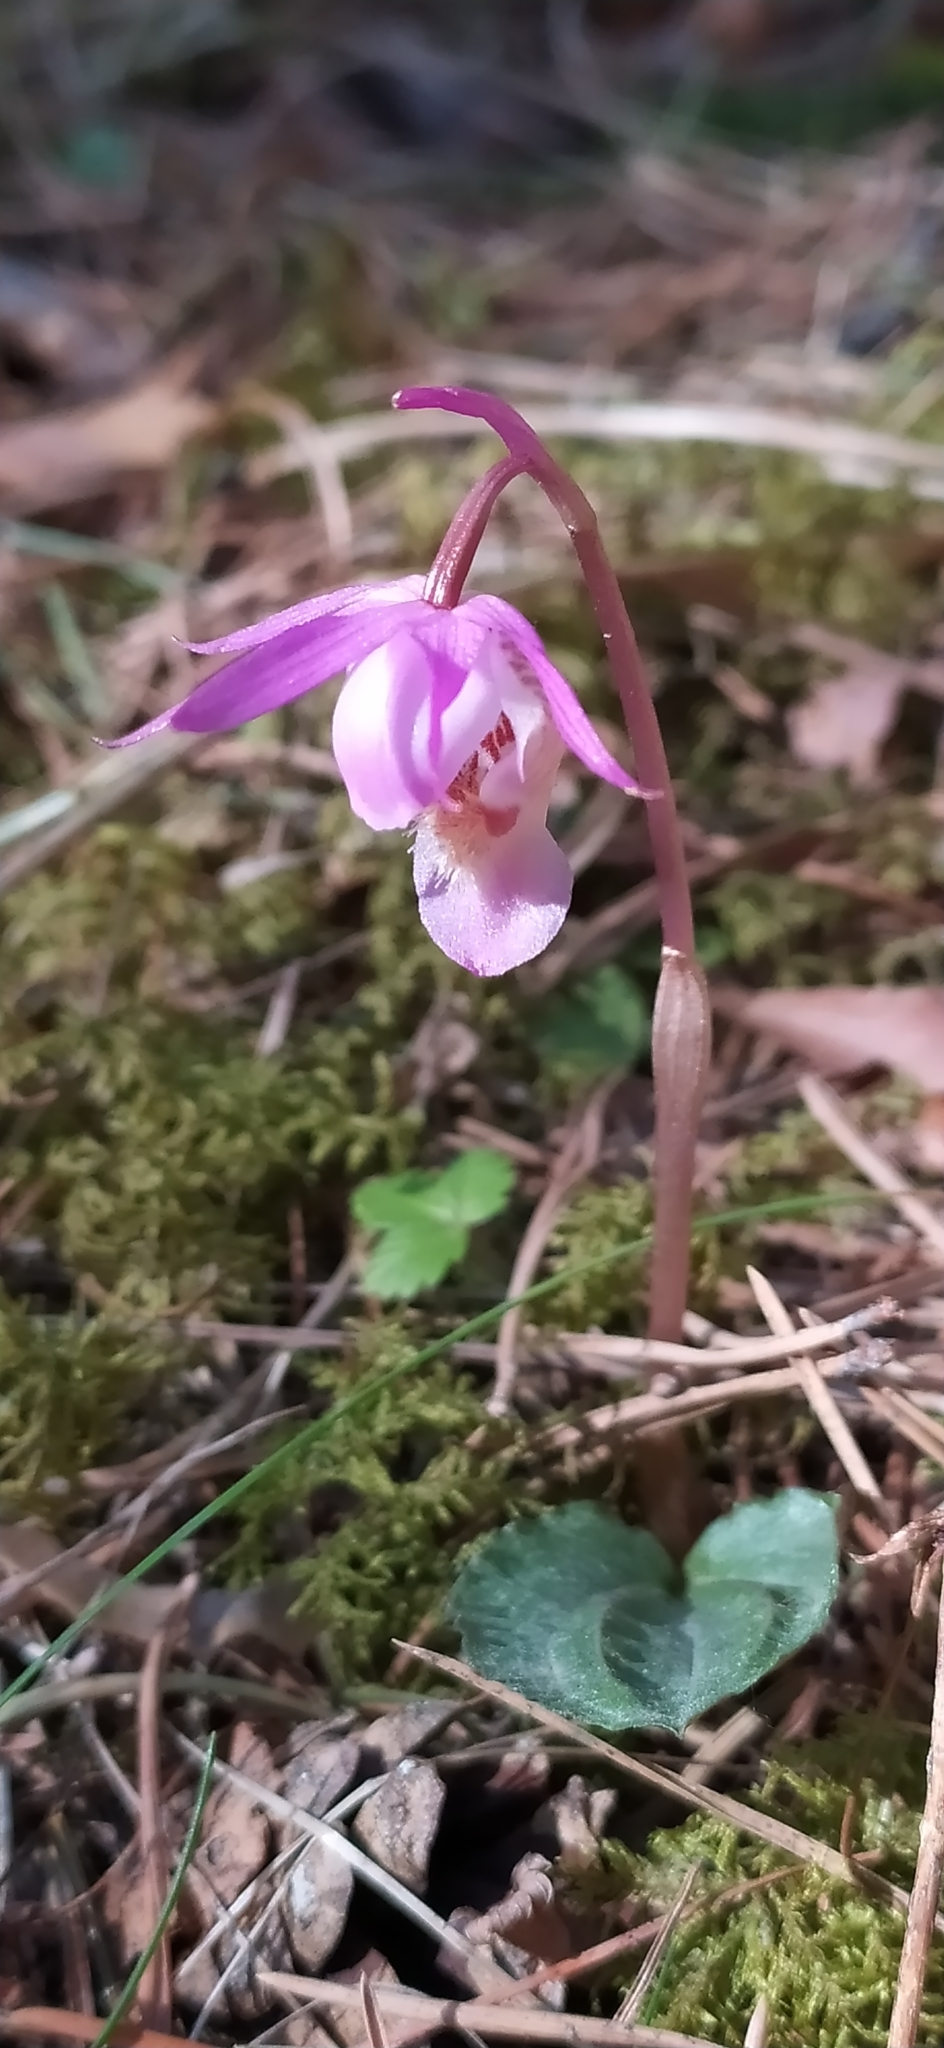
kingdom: Plantae
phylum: Tracheophyta
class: Liliopsida
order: Asparagales
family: Orchidaceae
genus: Calypso
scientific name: Calypso bulbosa
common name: Calypso
